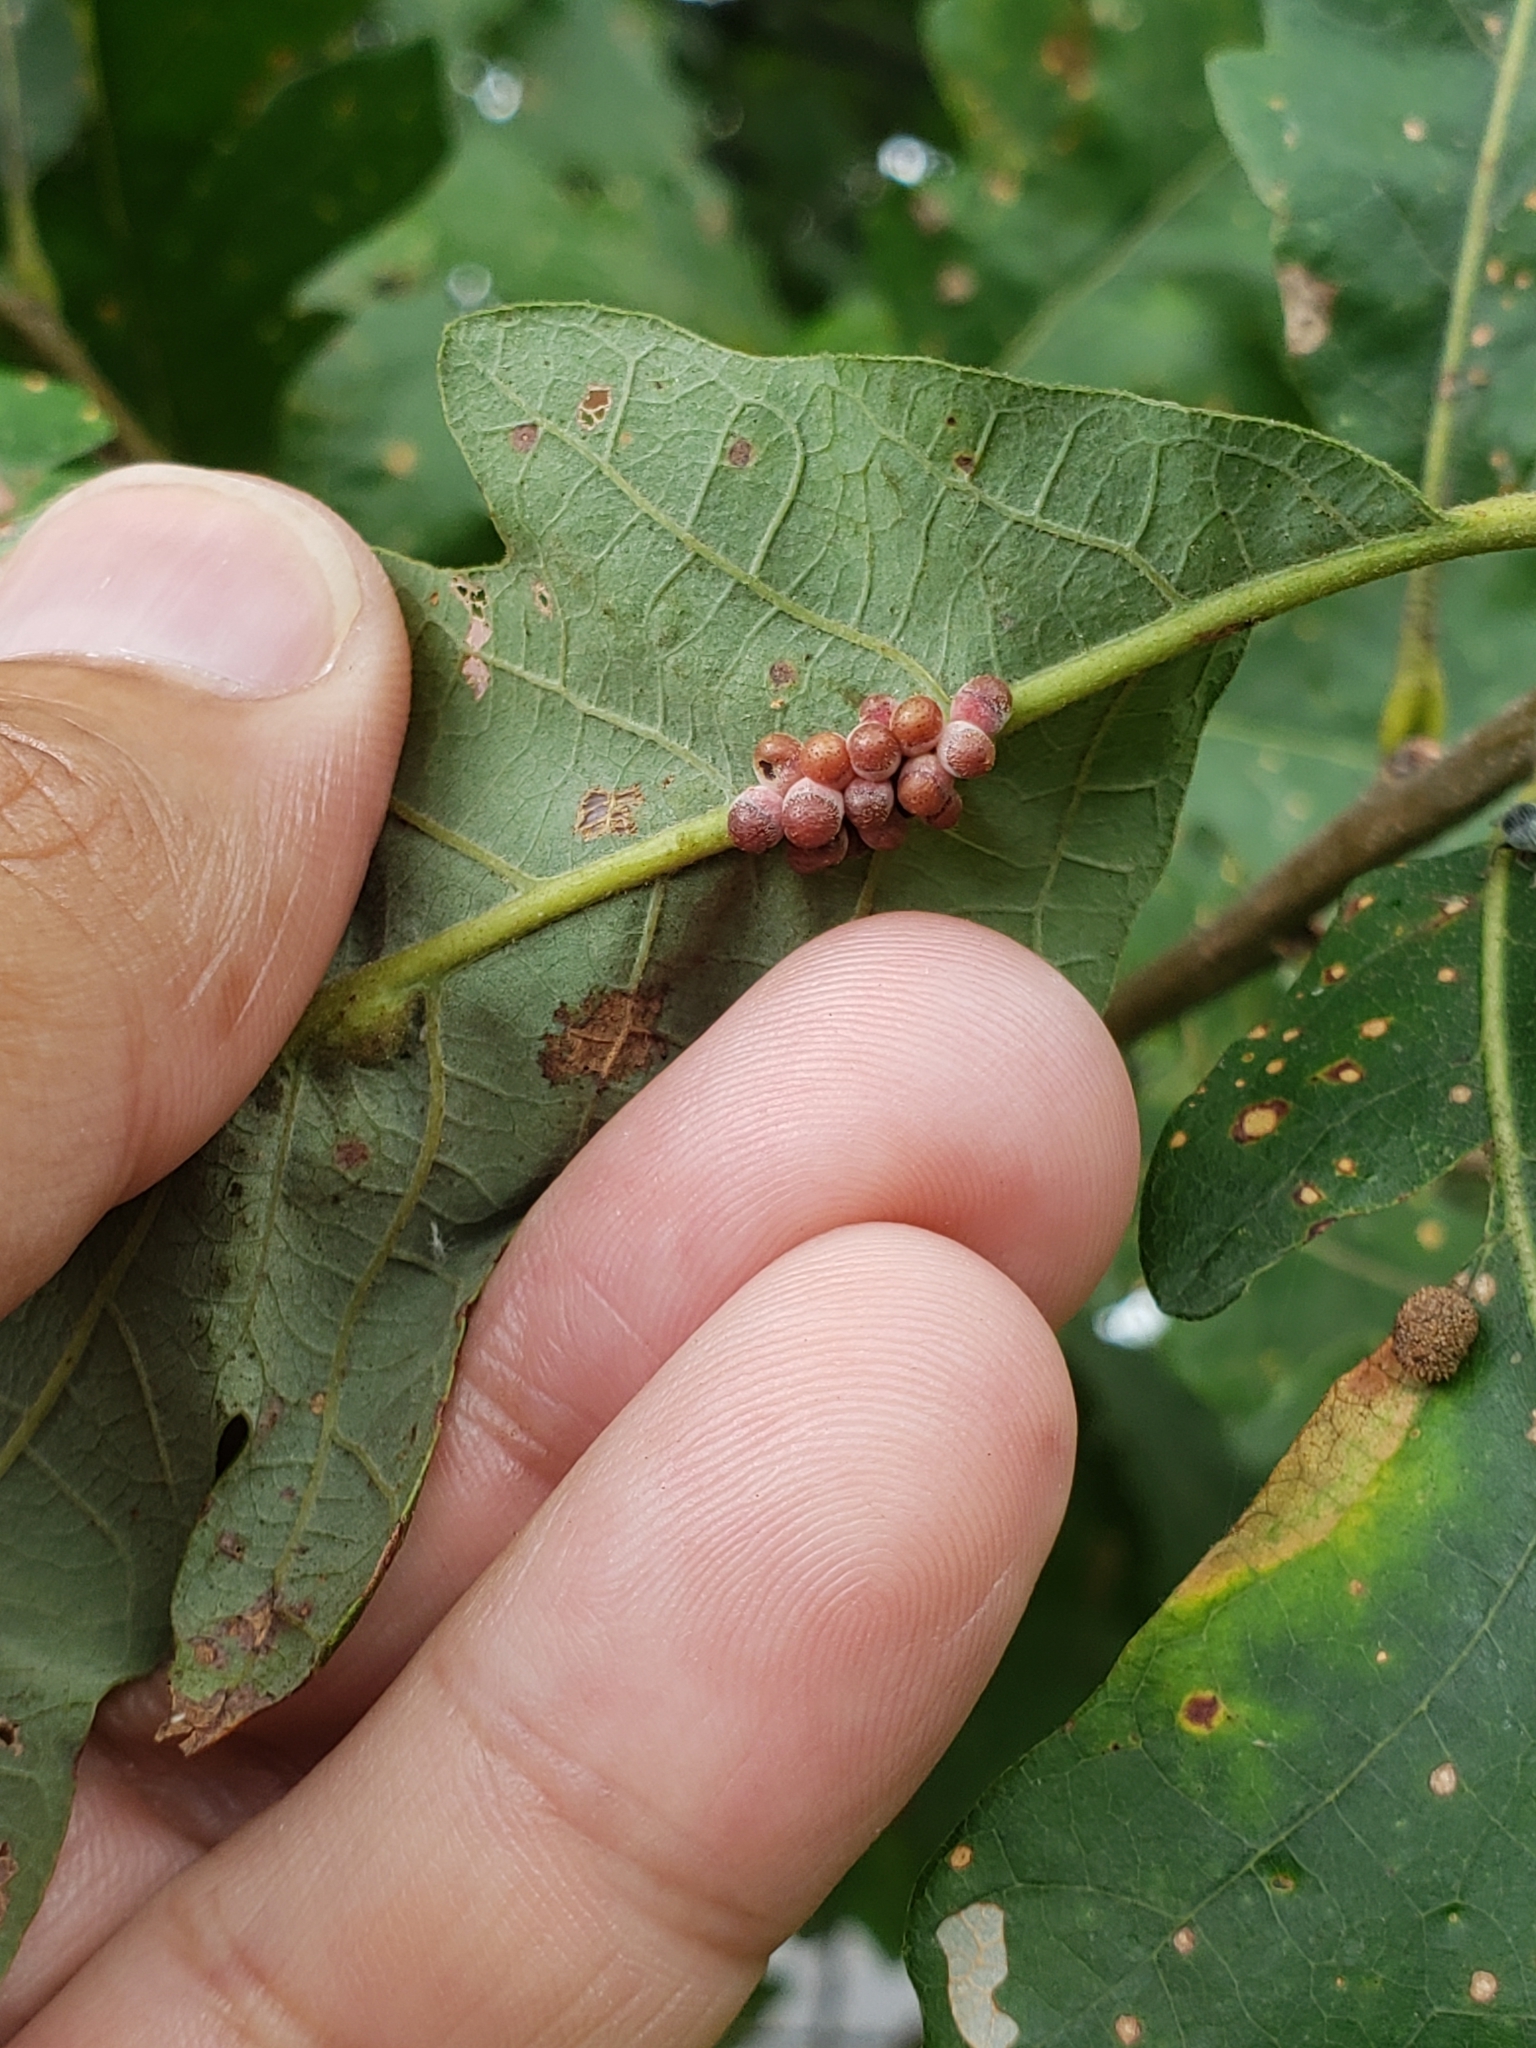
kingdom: Animalia
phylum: Arthropoda
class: Insecta
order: Hymenoptera
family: Cynipidae
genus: Andricus
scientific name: Andricus
